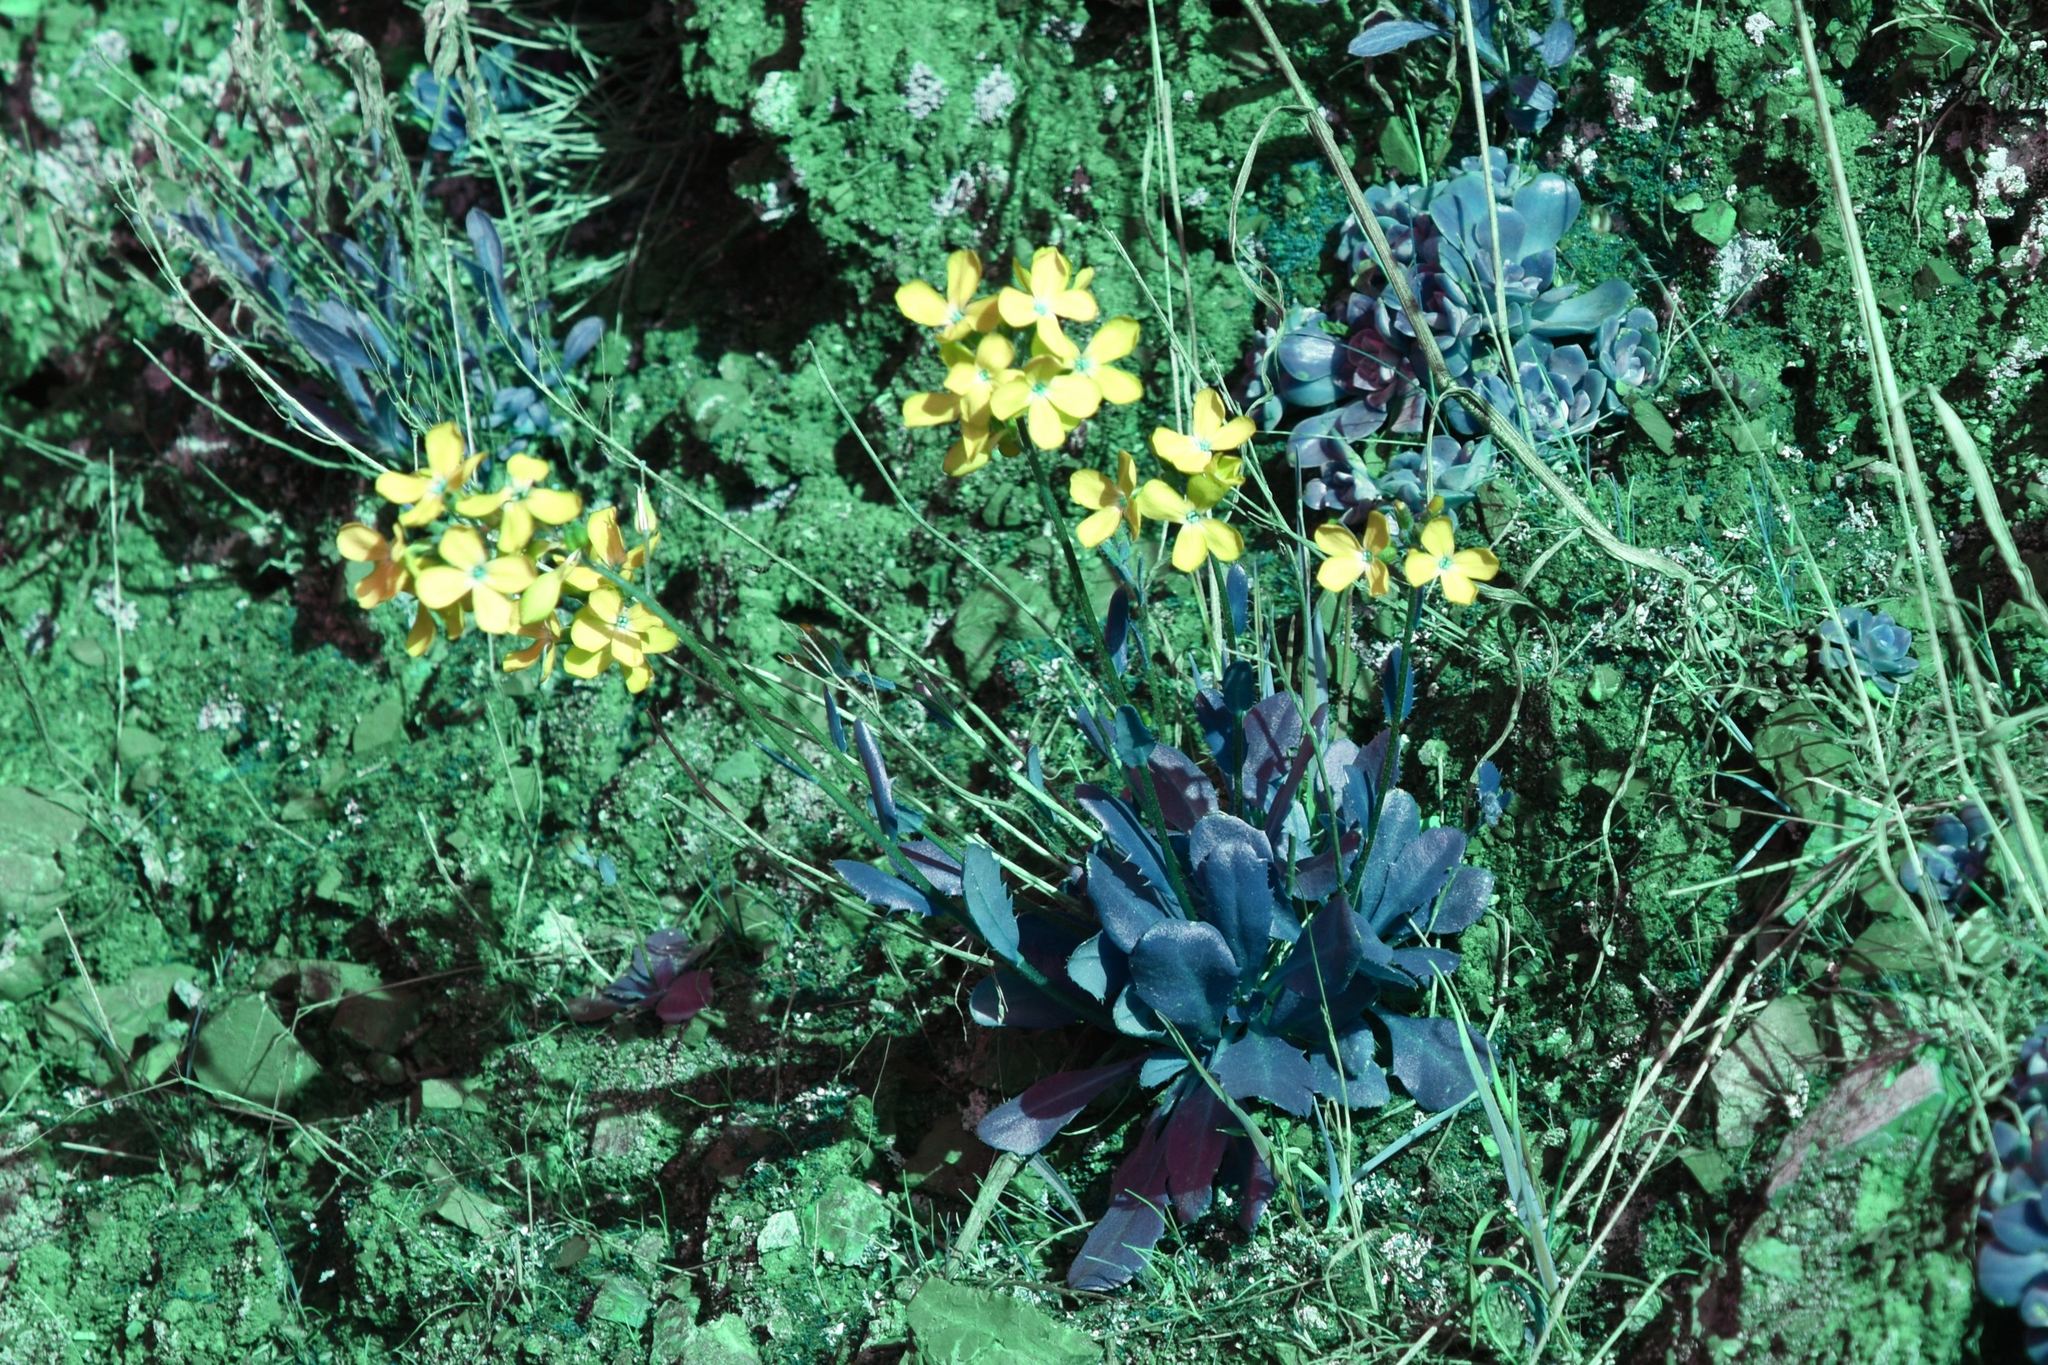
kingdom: Plantae
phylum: Tracheophyta
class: Magnoliopsida
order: Brassicales
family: Brassicaceae
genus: Arabis
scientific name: Arabis blepharophylla
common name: Rose rockcress
